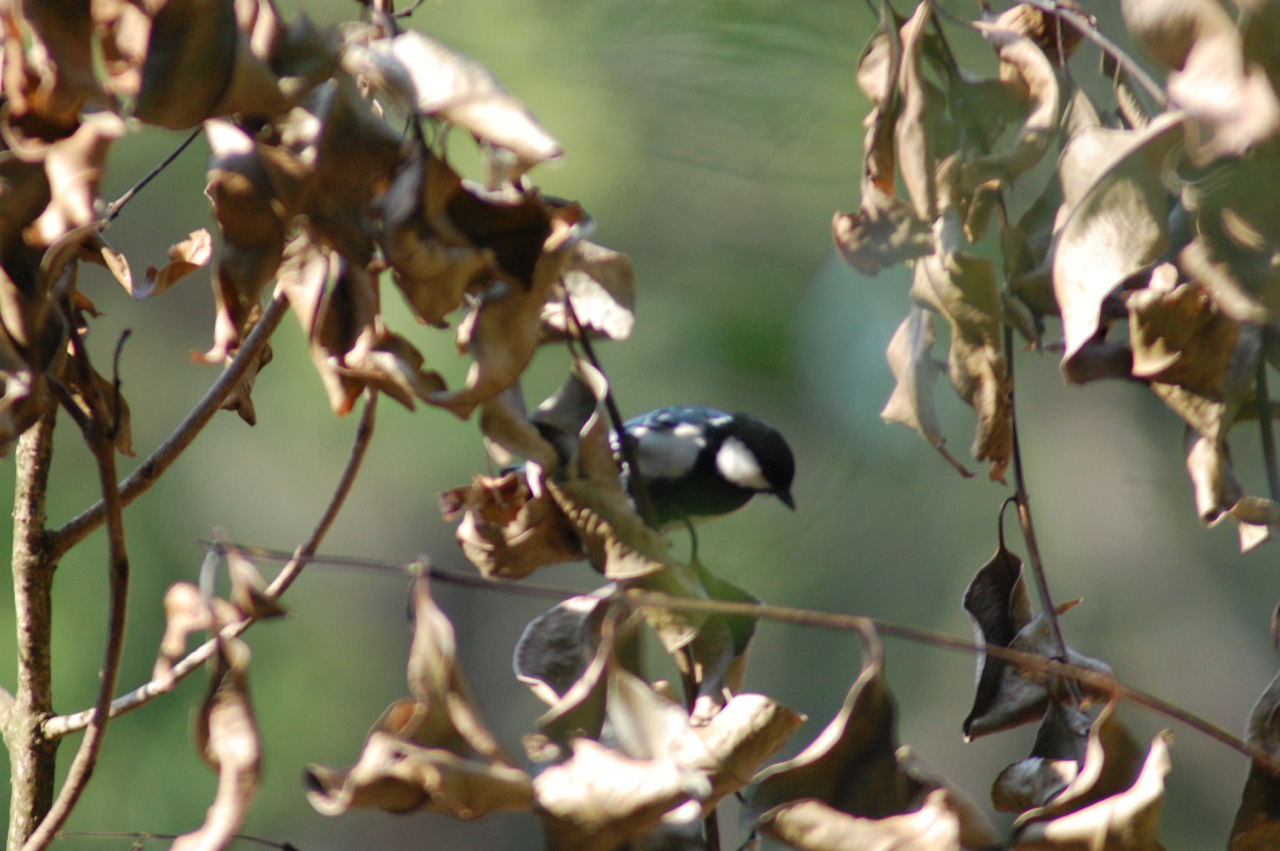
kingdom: Animalia
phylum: Chordata
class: Aves
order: Passeriformes
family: Paridae
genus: Parus
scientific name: Parus cinereus
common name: Cinereous tit
